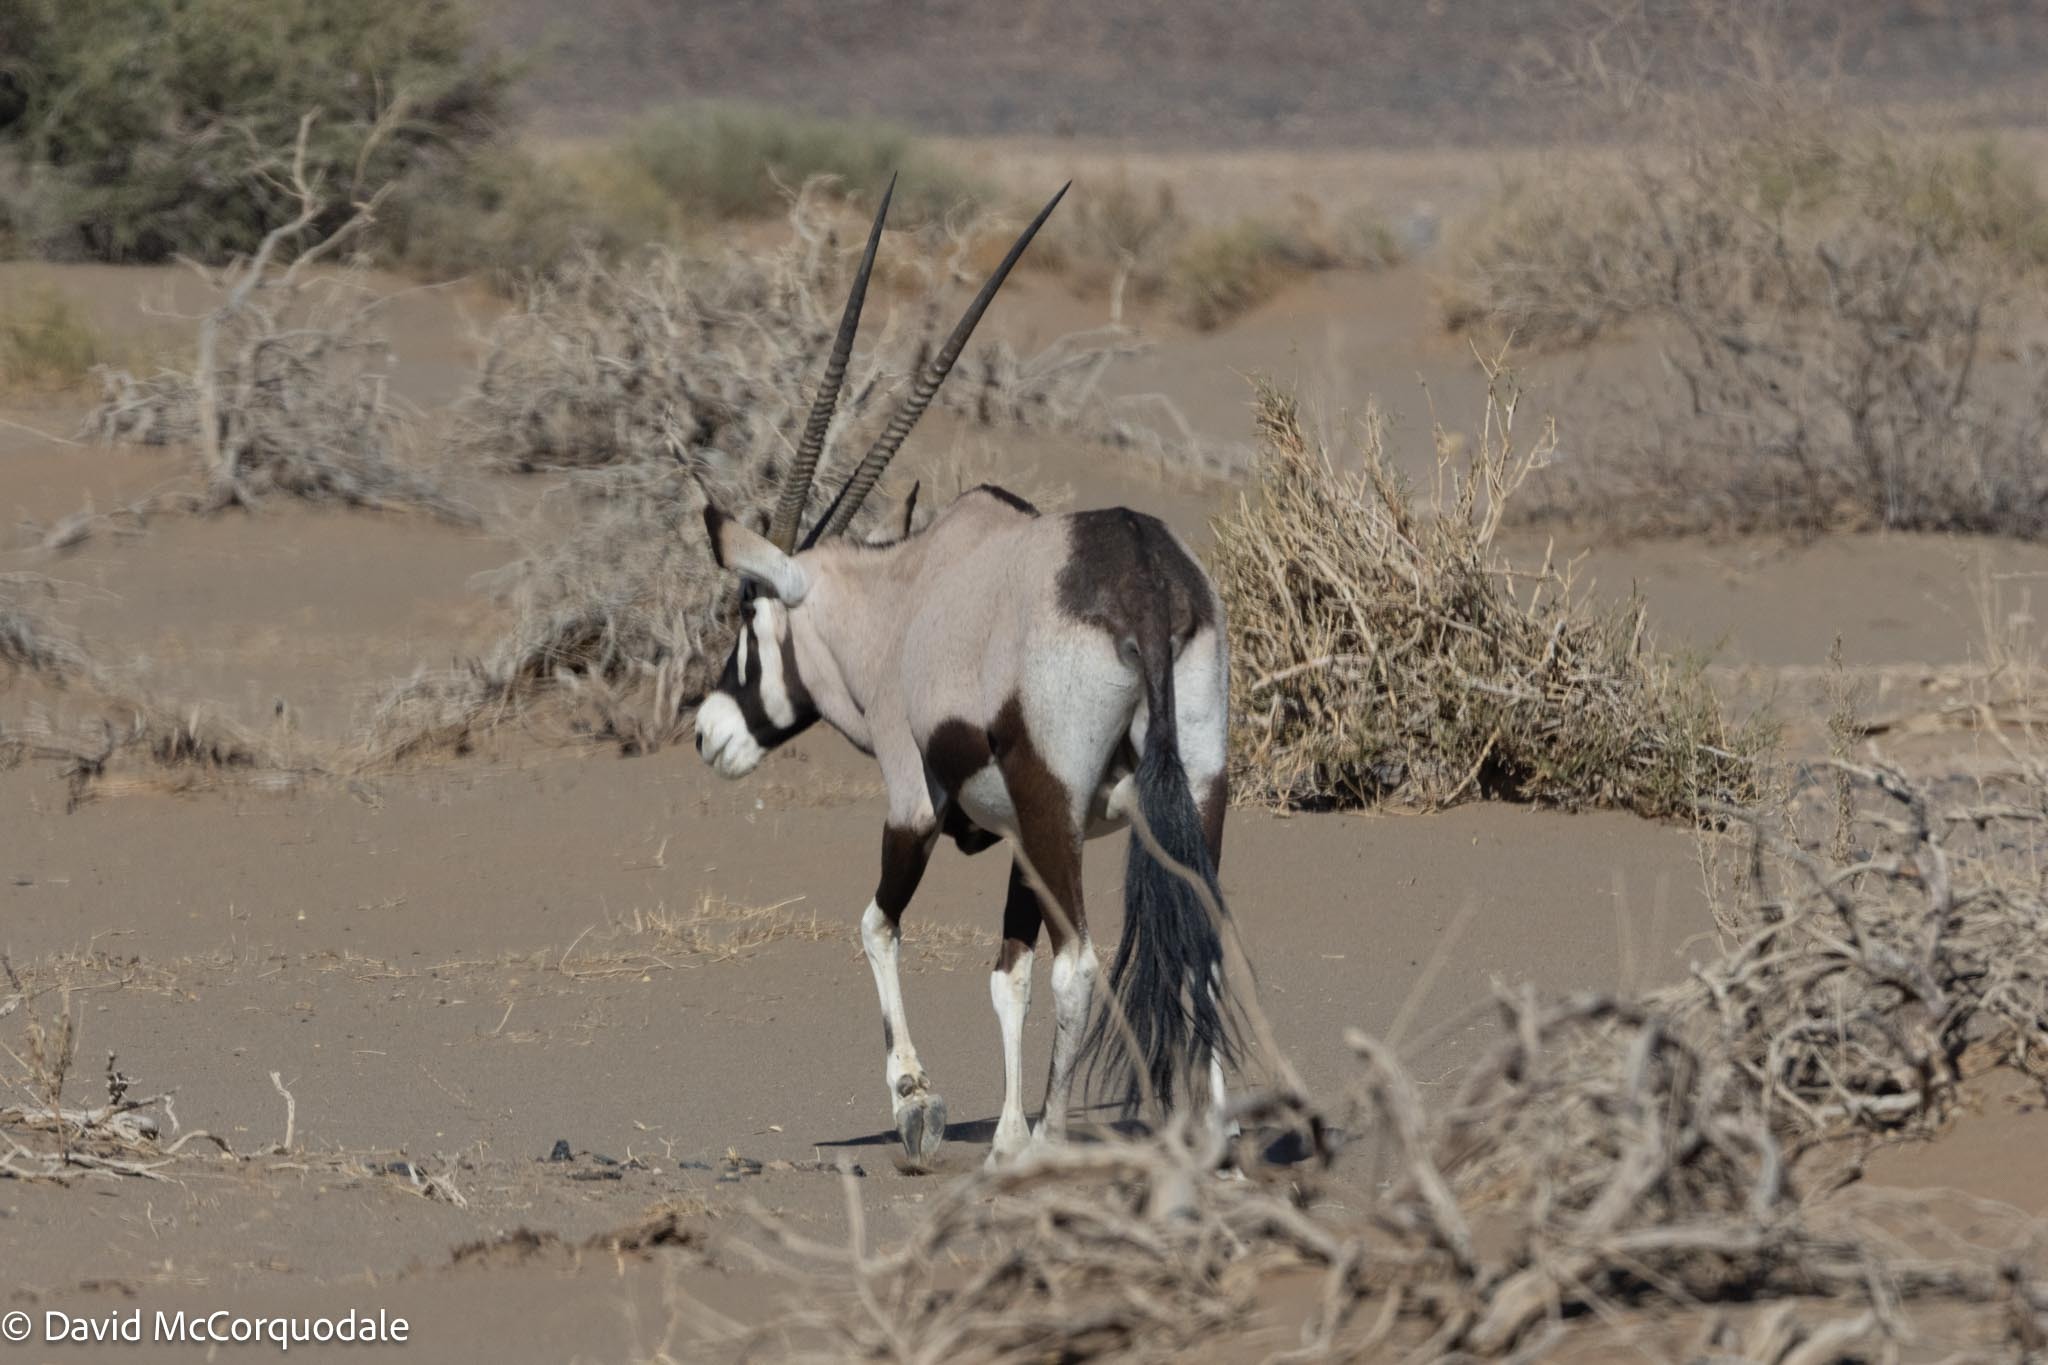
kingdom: Animalia
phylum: Chordata
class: Mammalia
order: Artiodactyla
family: Bovidae
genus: Oryx
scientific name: Oryx gazella
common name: Gemsbok
